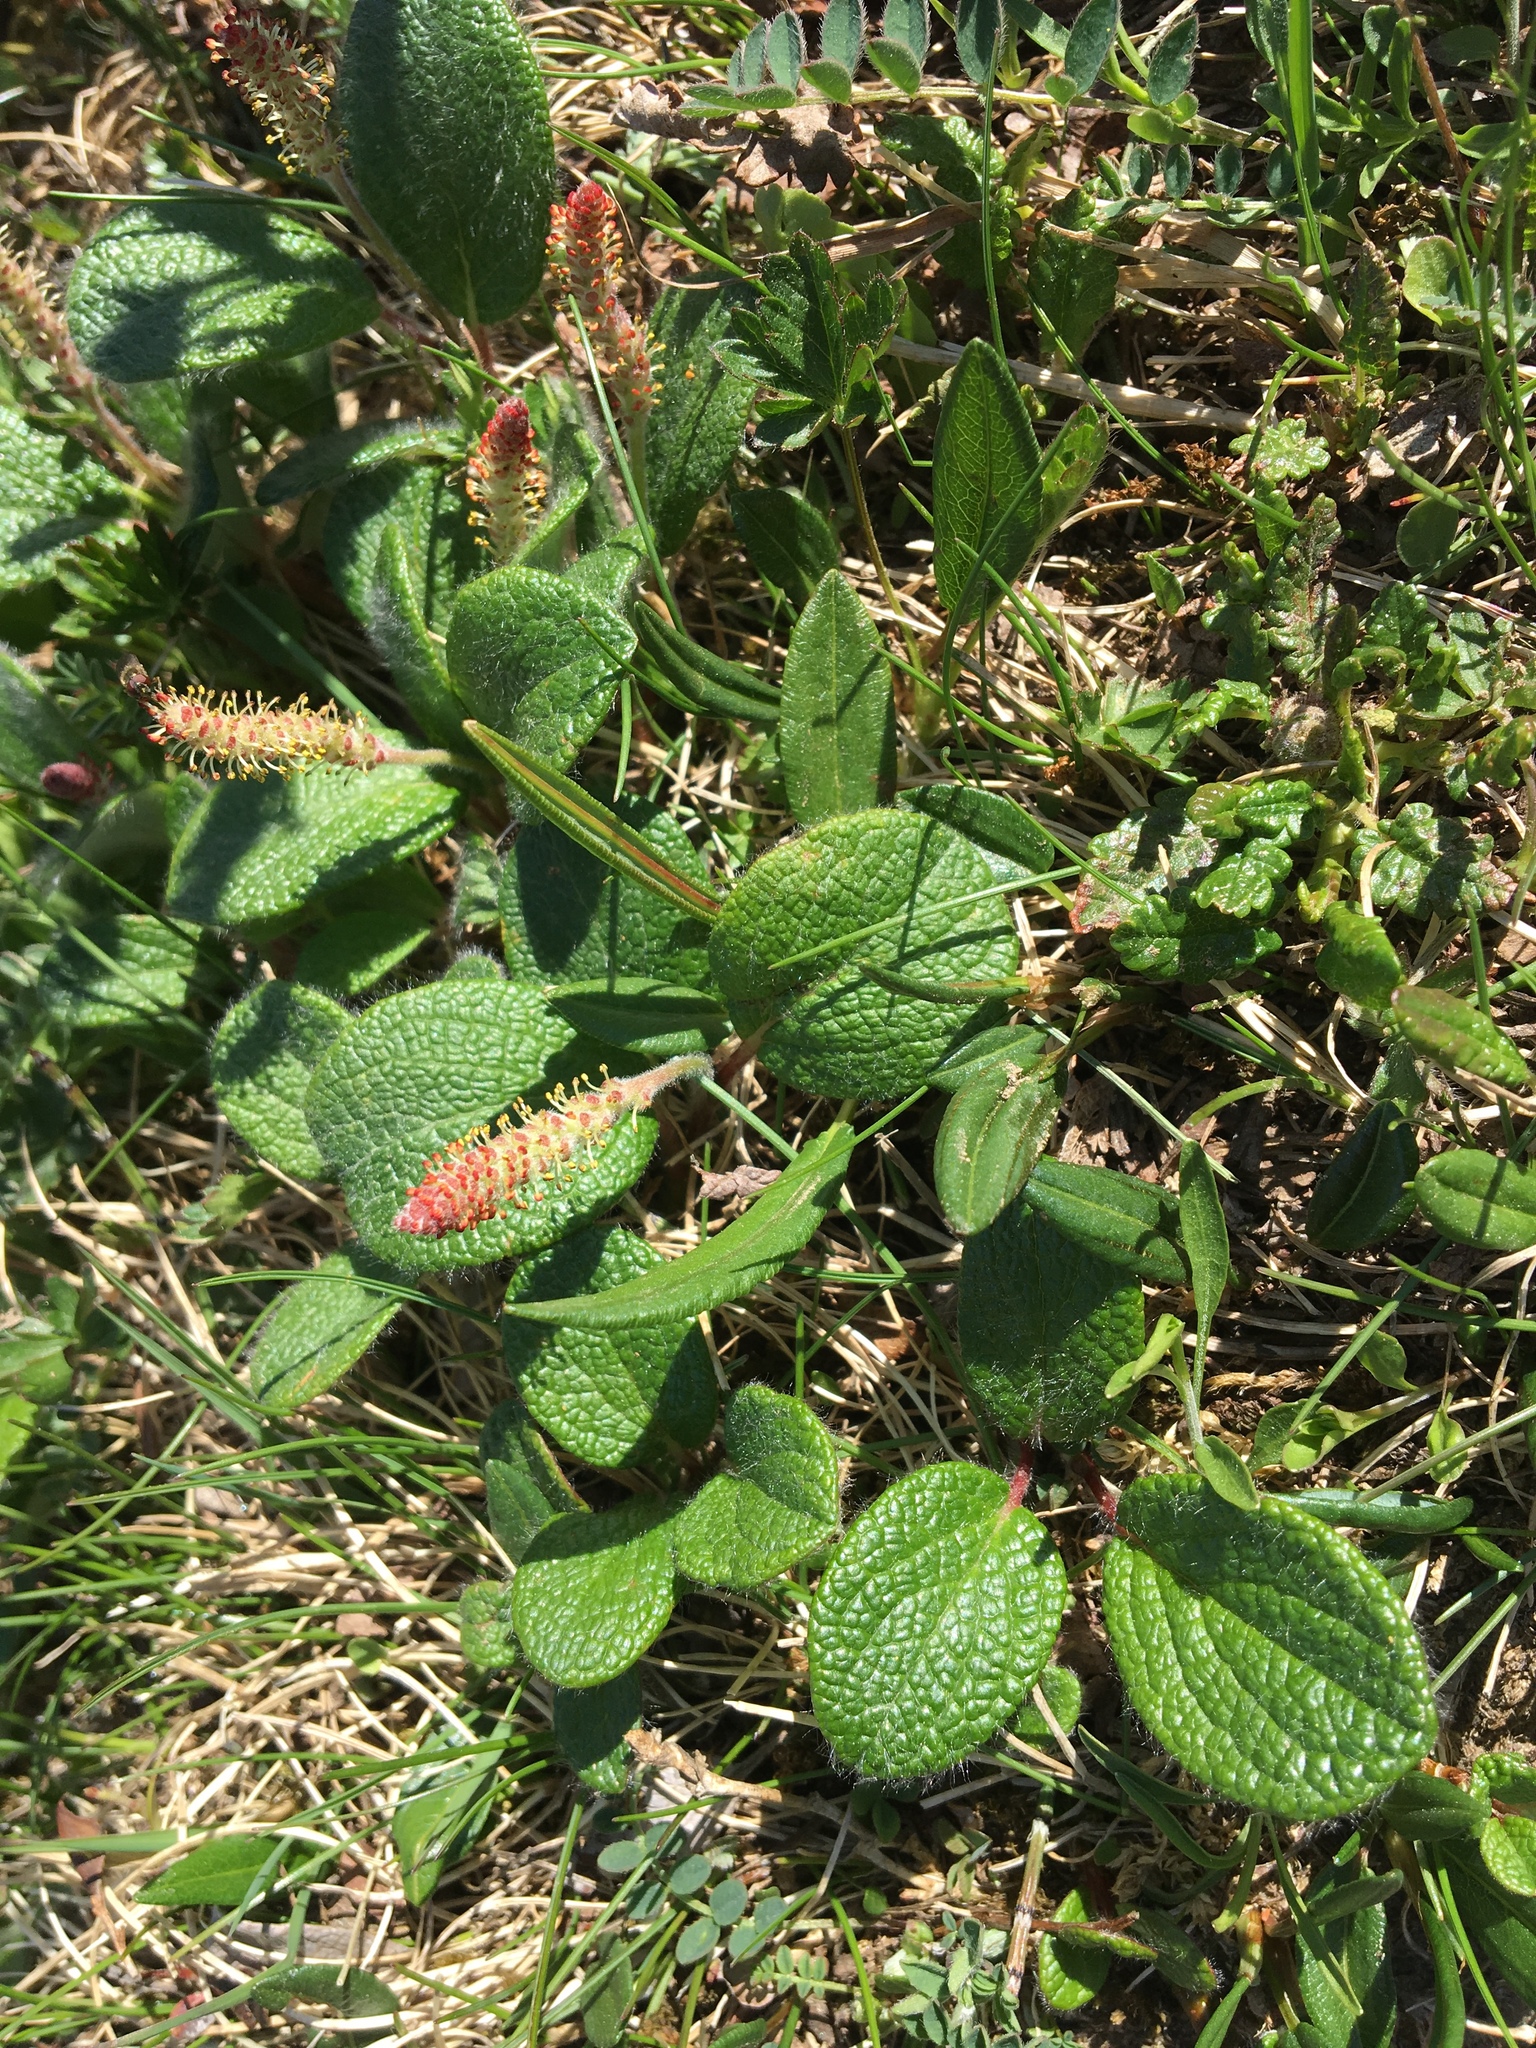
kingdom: Plantae
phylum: Tracheophyta
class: Magnoliopsida
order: Malpighiales
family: Salicaceae
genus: Salix
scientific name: Salix reticulata
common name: Net-leaved willow
